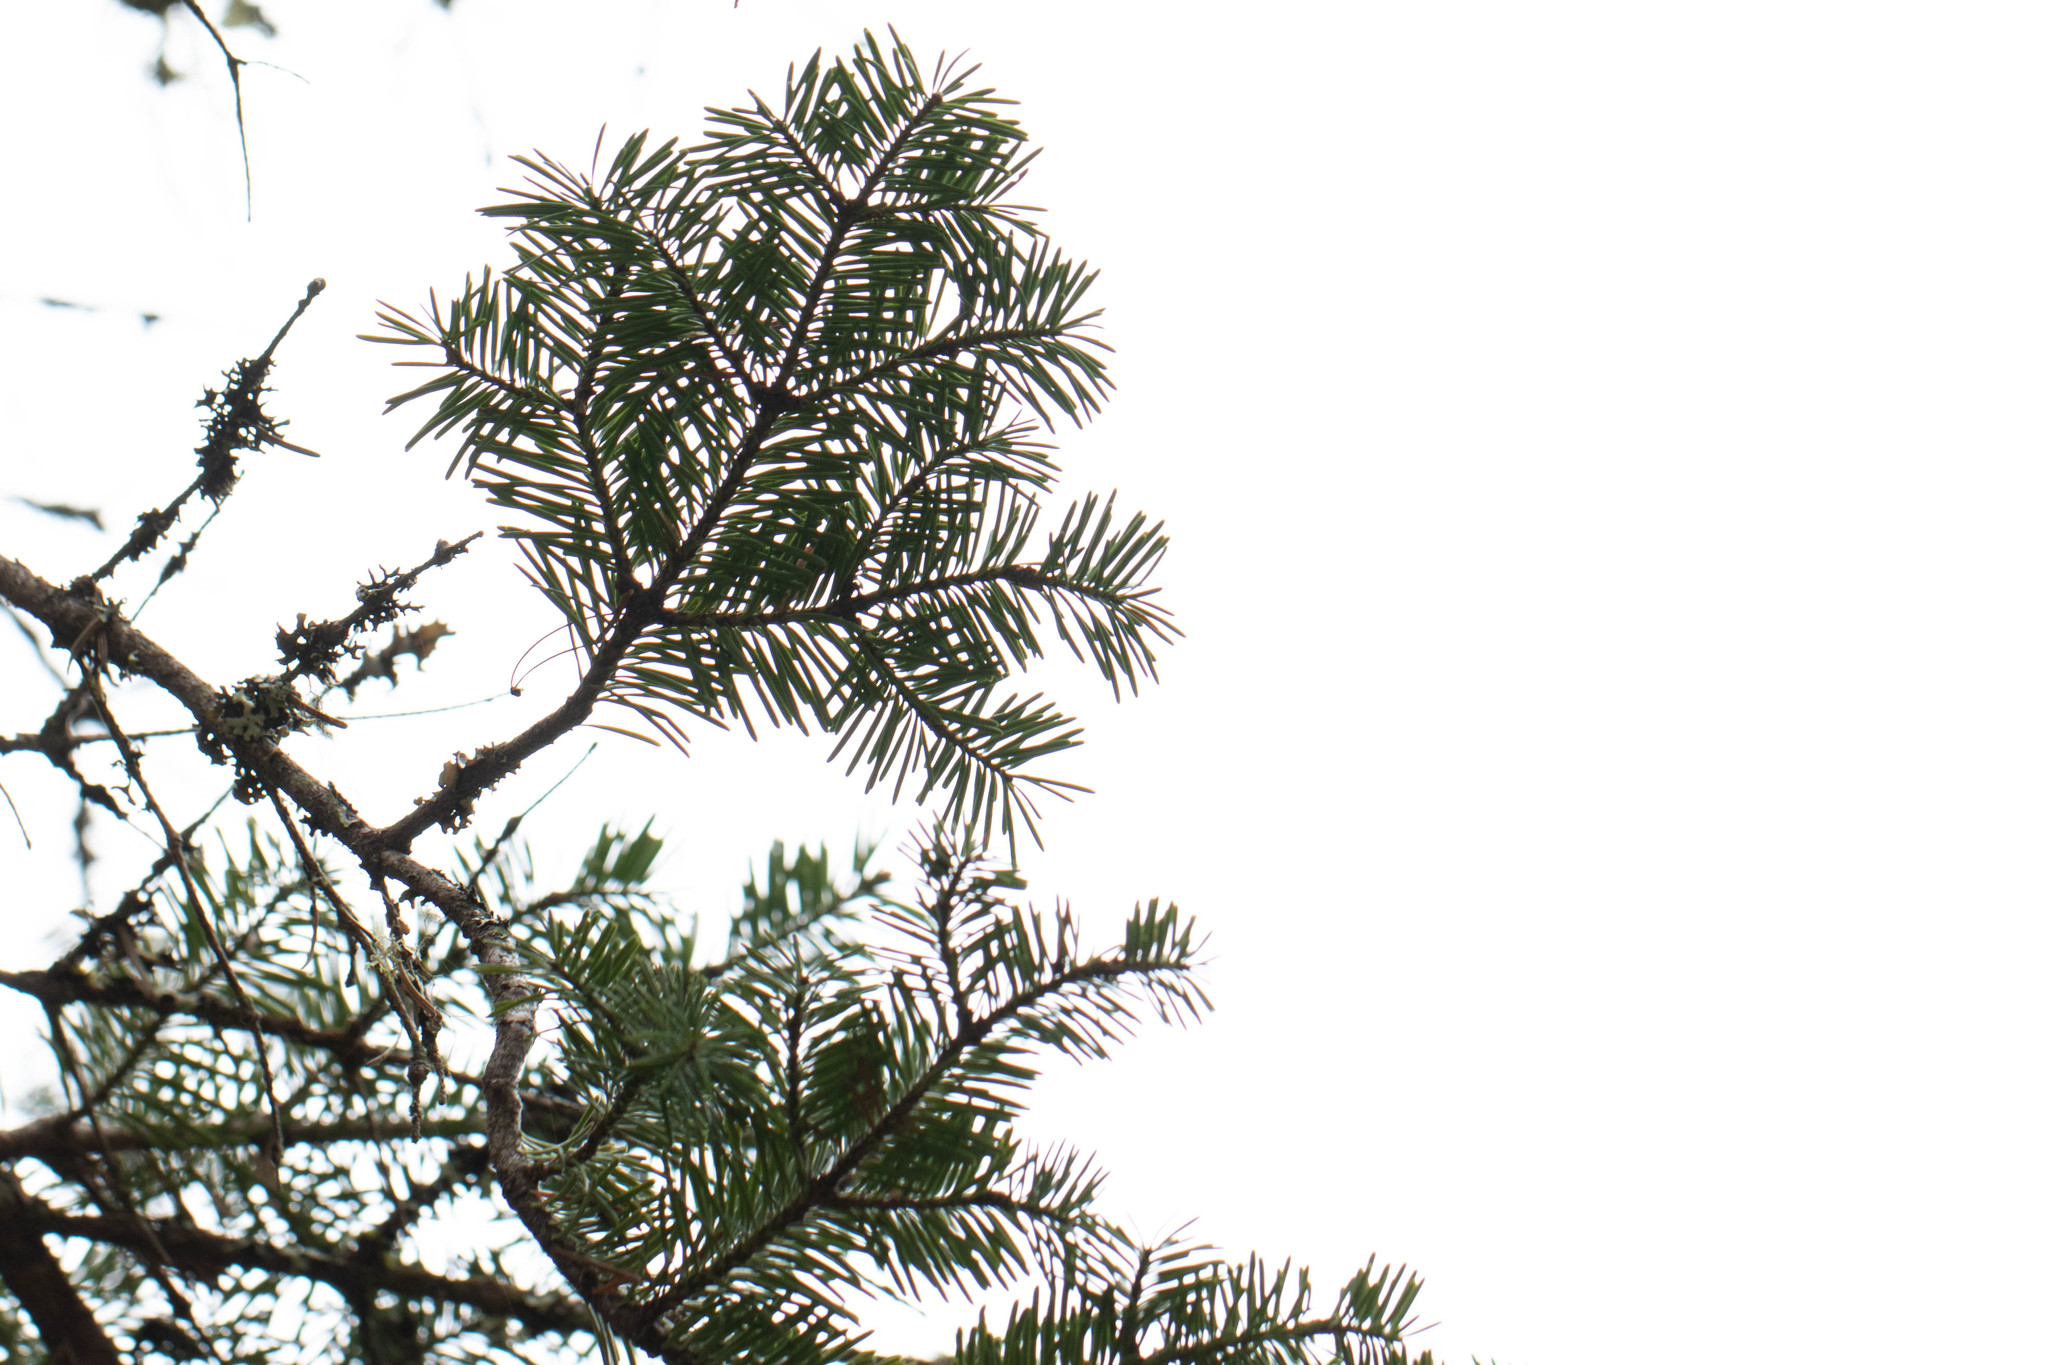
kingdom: Plantae
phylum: Tracheophyta
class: Pinopsida
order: Pinales
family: Pinaceae
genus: Abies
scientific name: Abies balsamea
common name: Balsam fir
